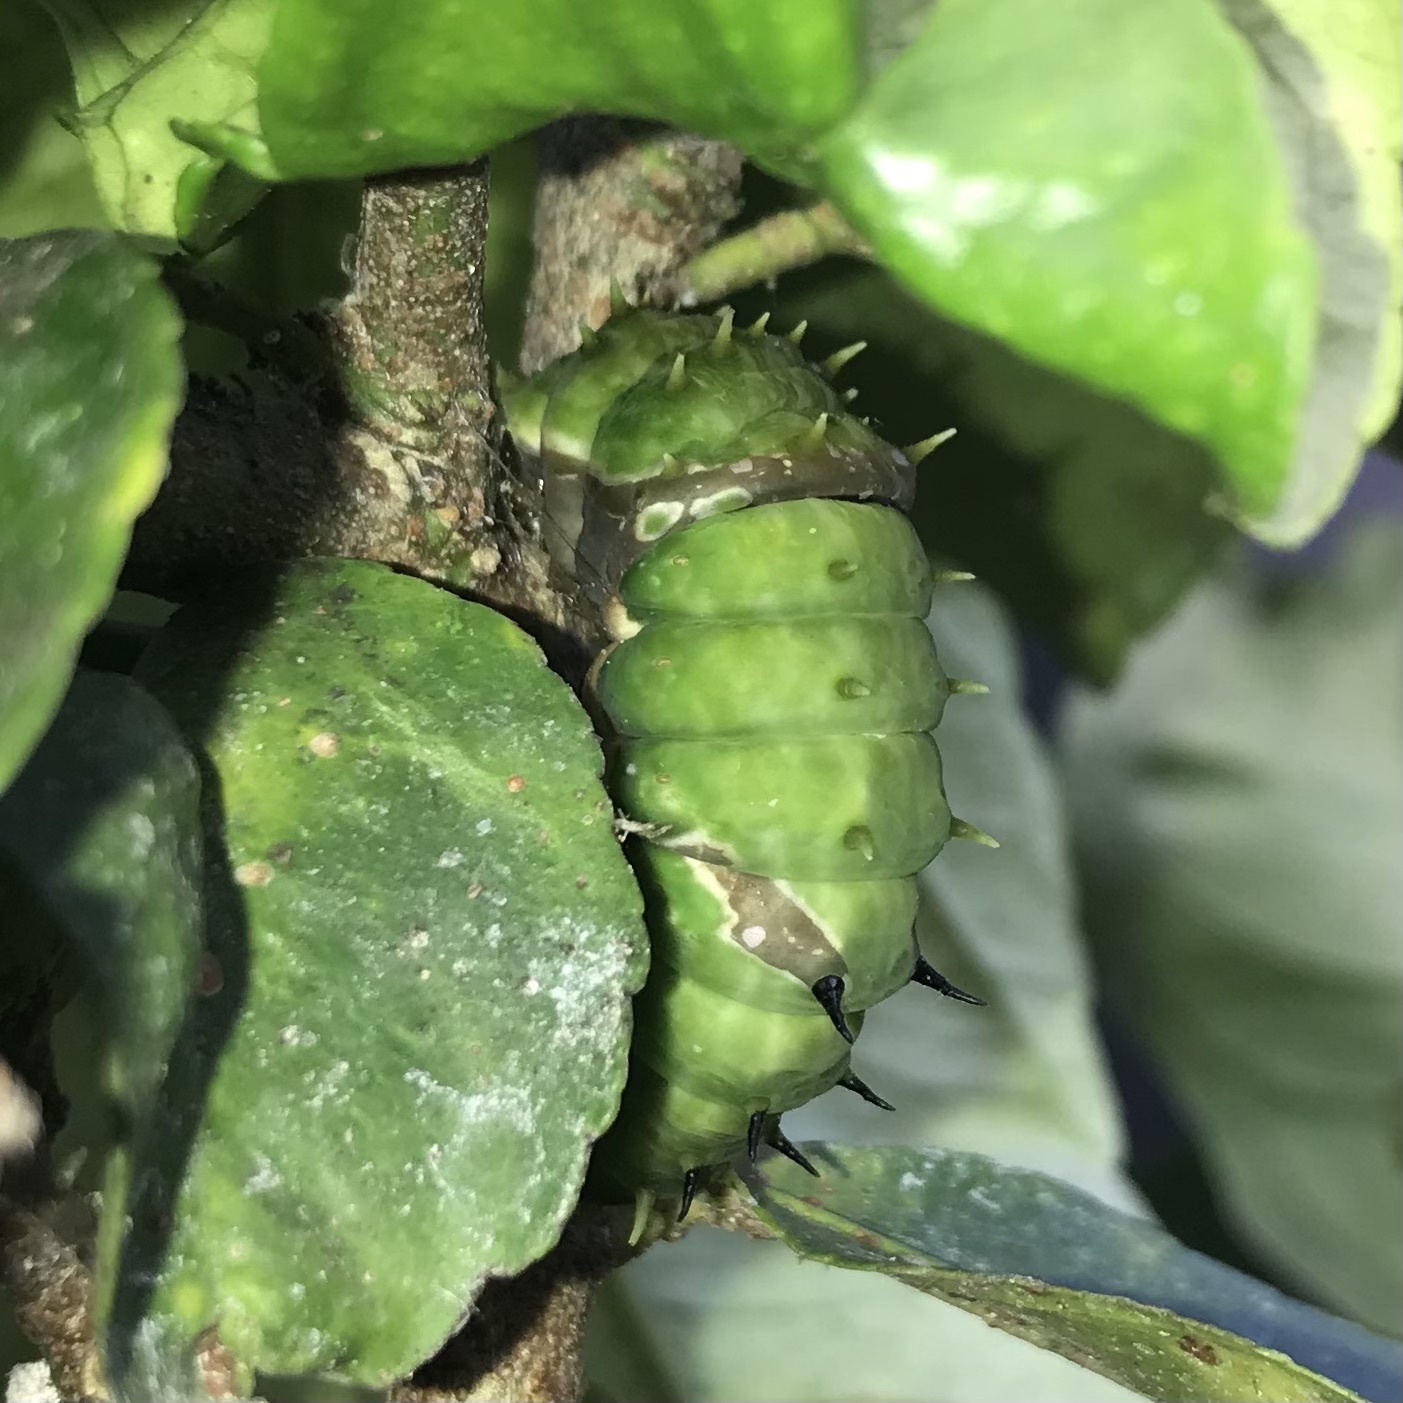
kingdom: Animalia
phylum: Arthropoda
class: Insecta
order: Lepidoptera
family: Papilionidae
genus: Papilio
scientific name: Papilio aegeus
